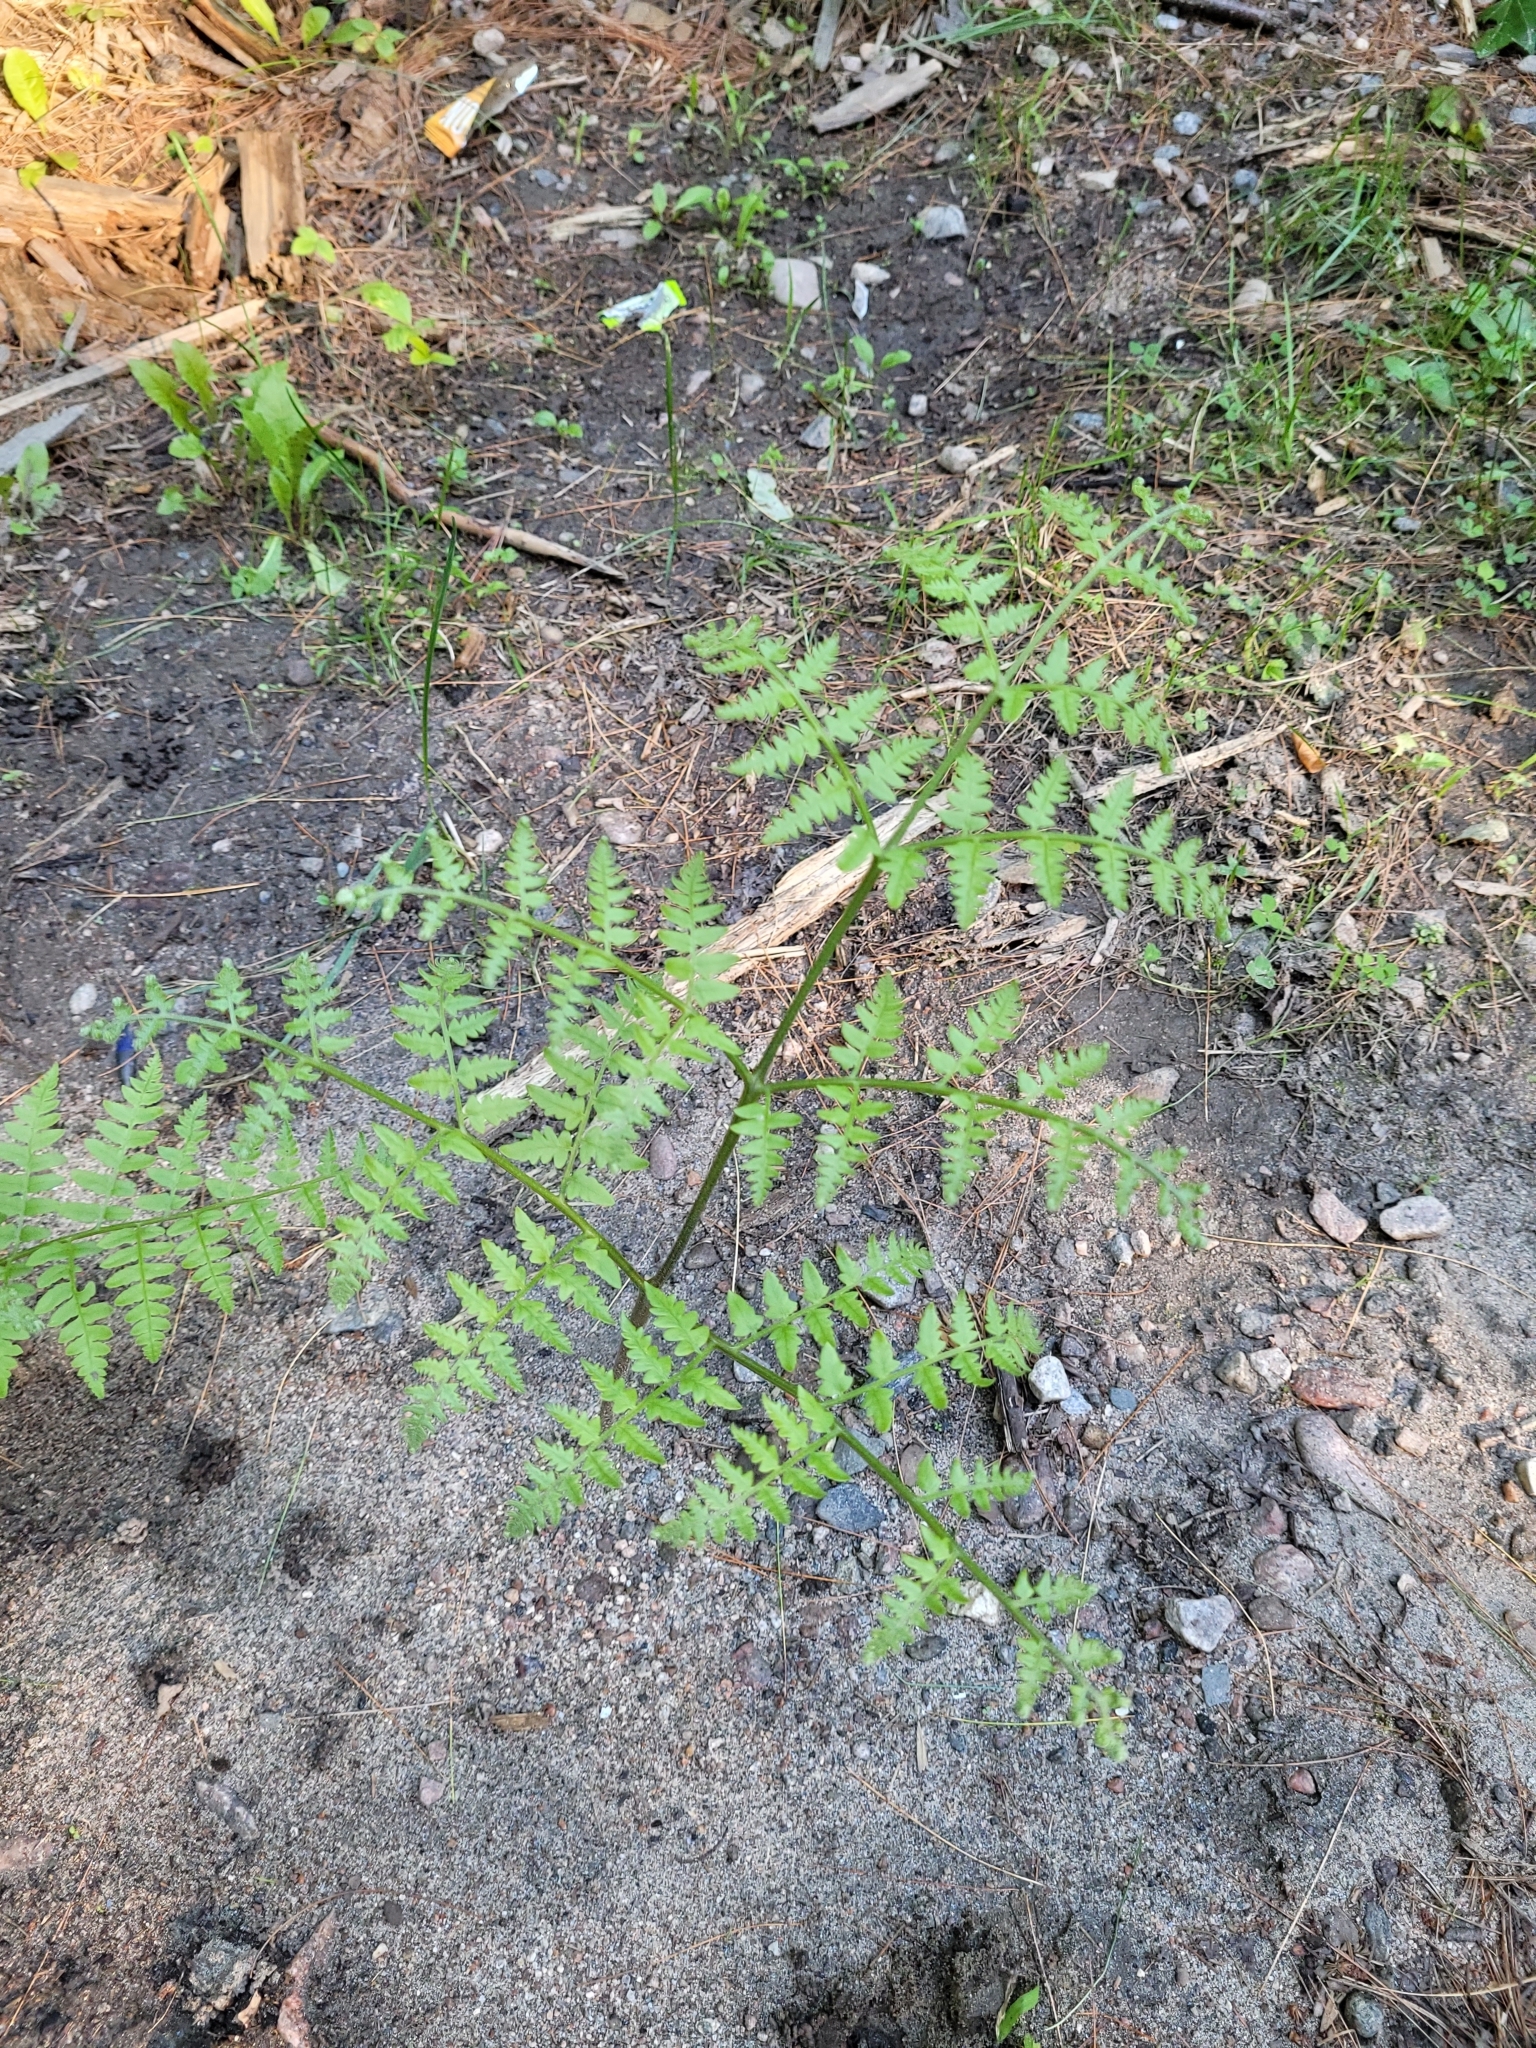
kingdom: Plantae
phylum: Tracheophyta
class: Polypodiopsida
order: Polypodiales
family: Dennstaedtiaceae
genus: Pteridium
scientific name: Pteridium aquilinum
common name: Bracken
